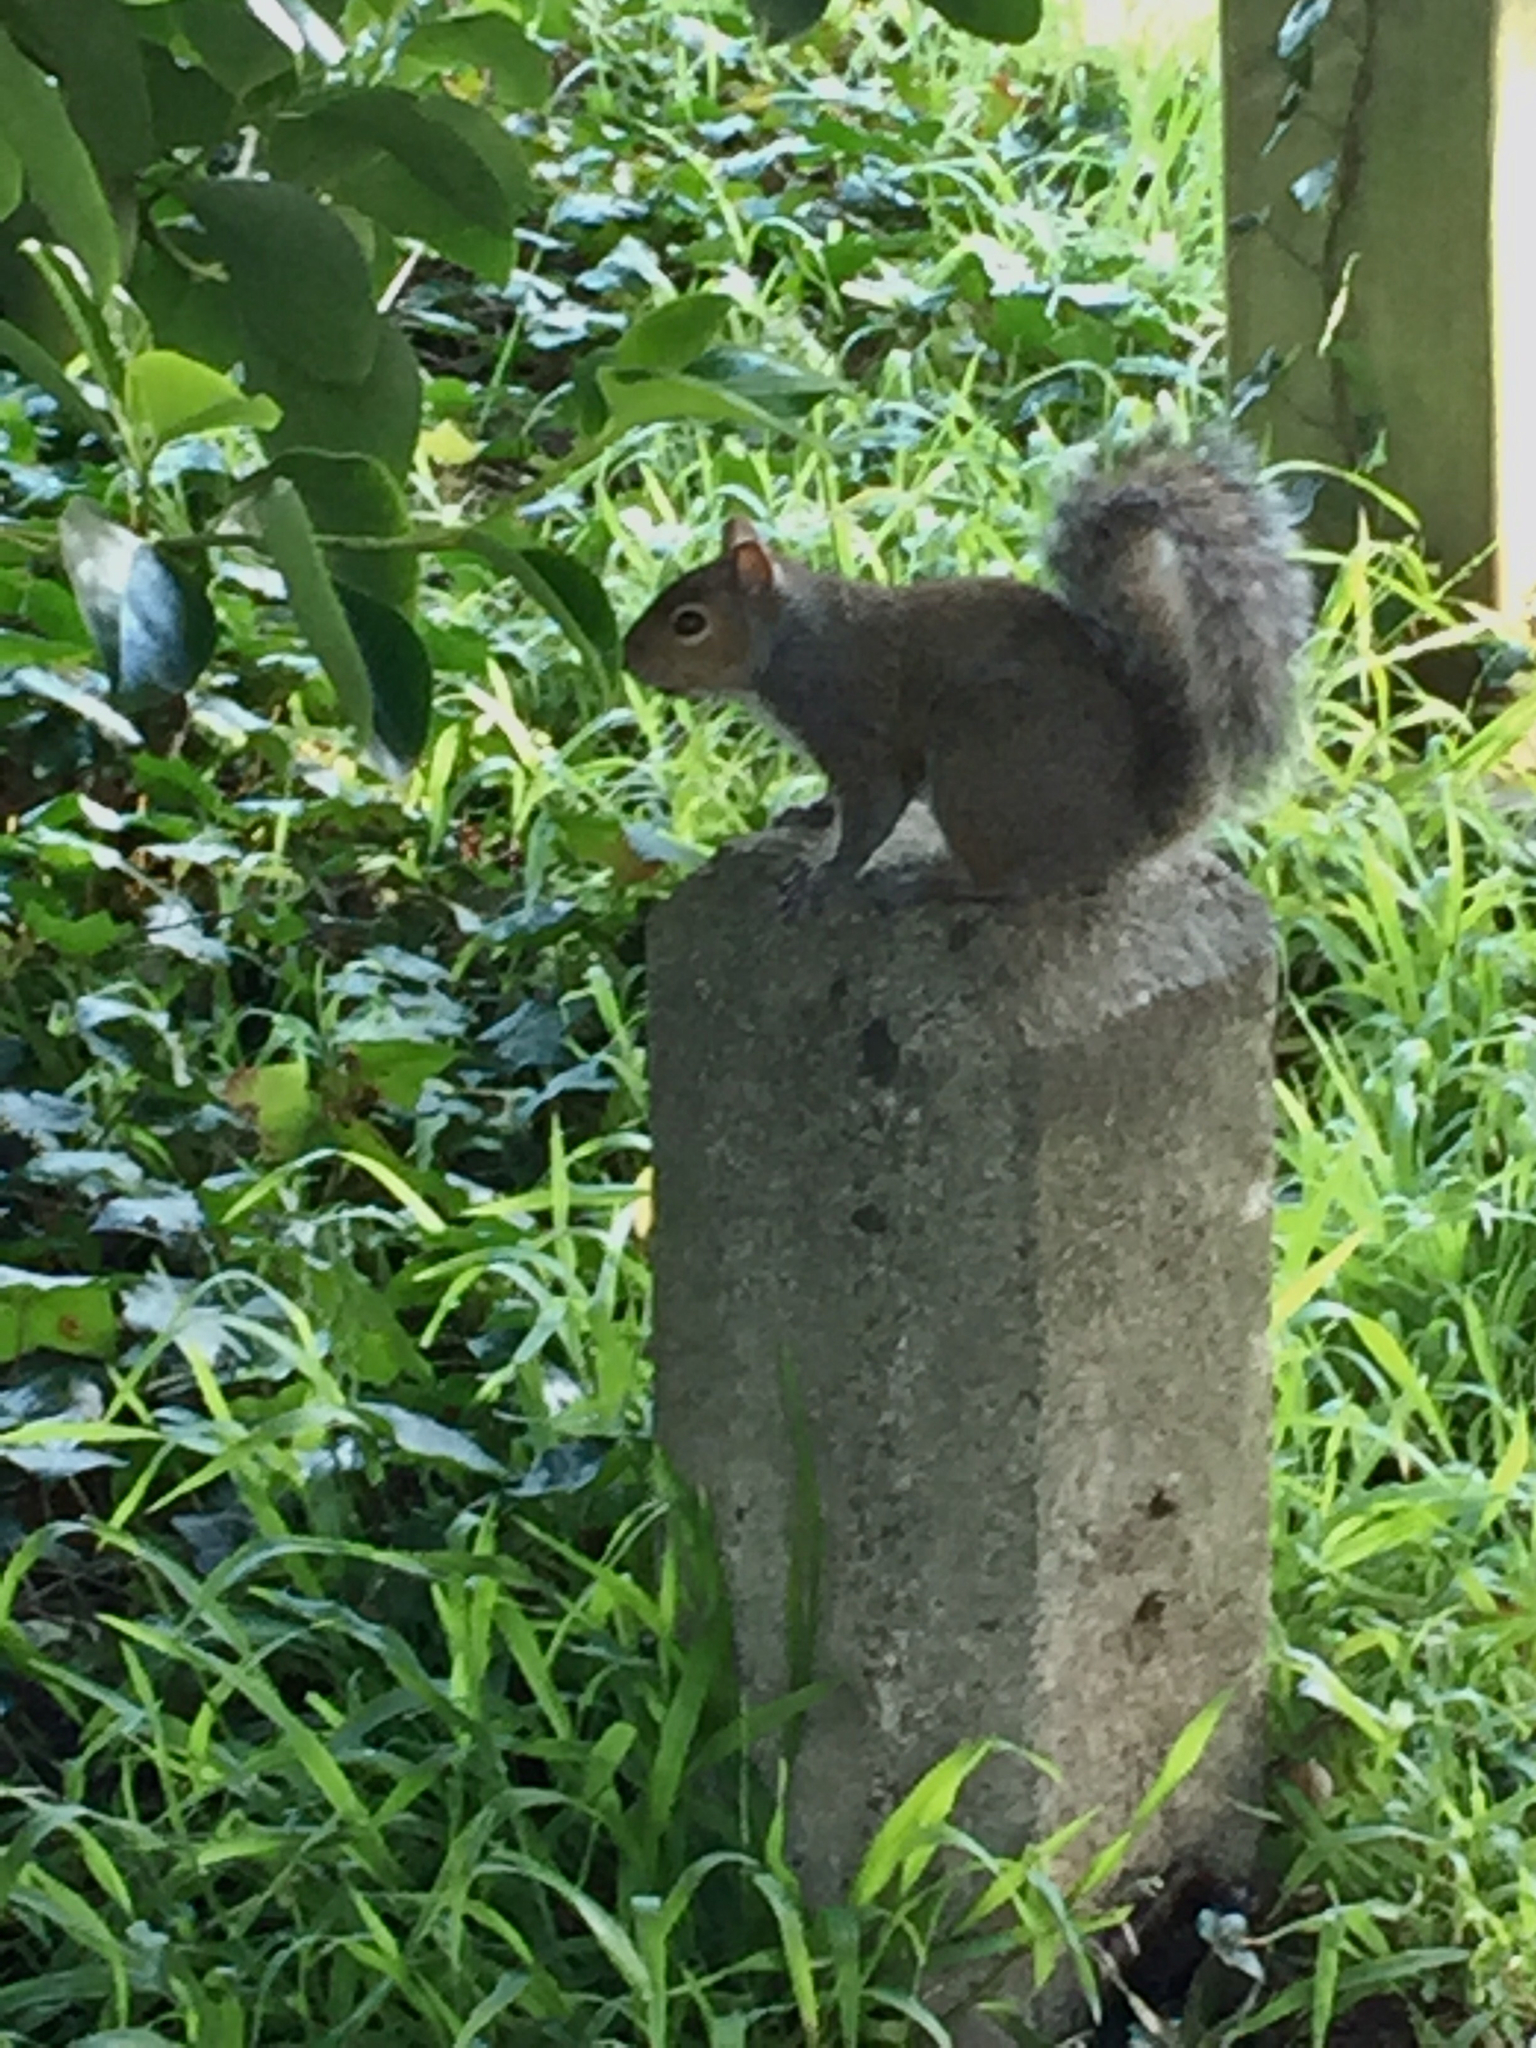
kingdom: Animalia
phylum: Chordata
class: Mammalia
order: Rodentia
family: Sciuridae
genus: Sciurus
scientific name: Sciurus carolinensis
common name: Eastern gray squirrel
